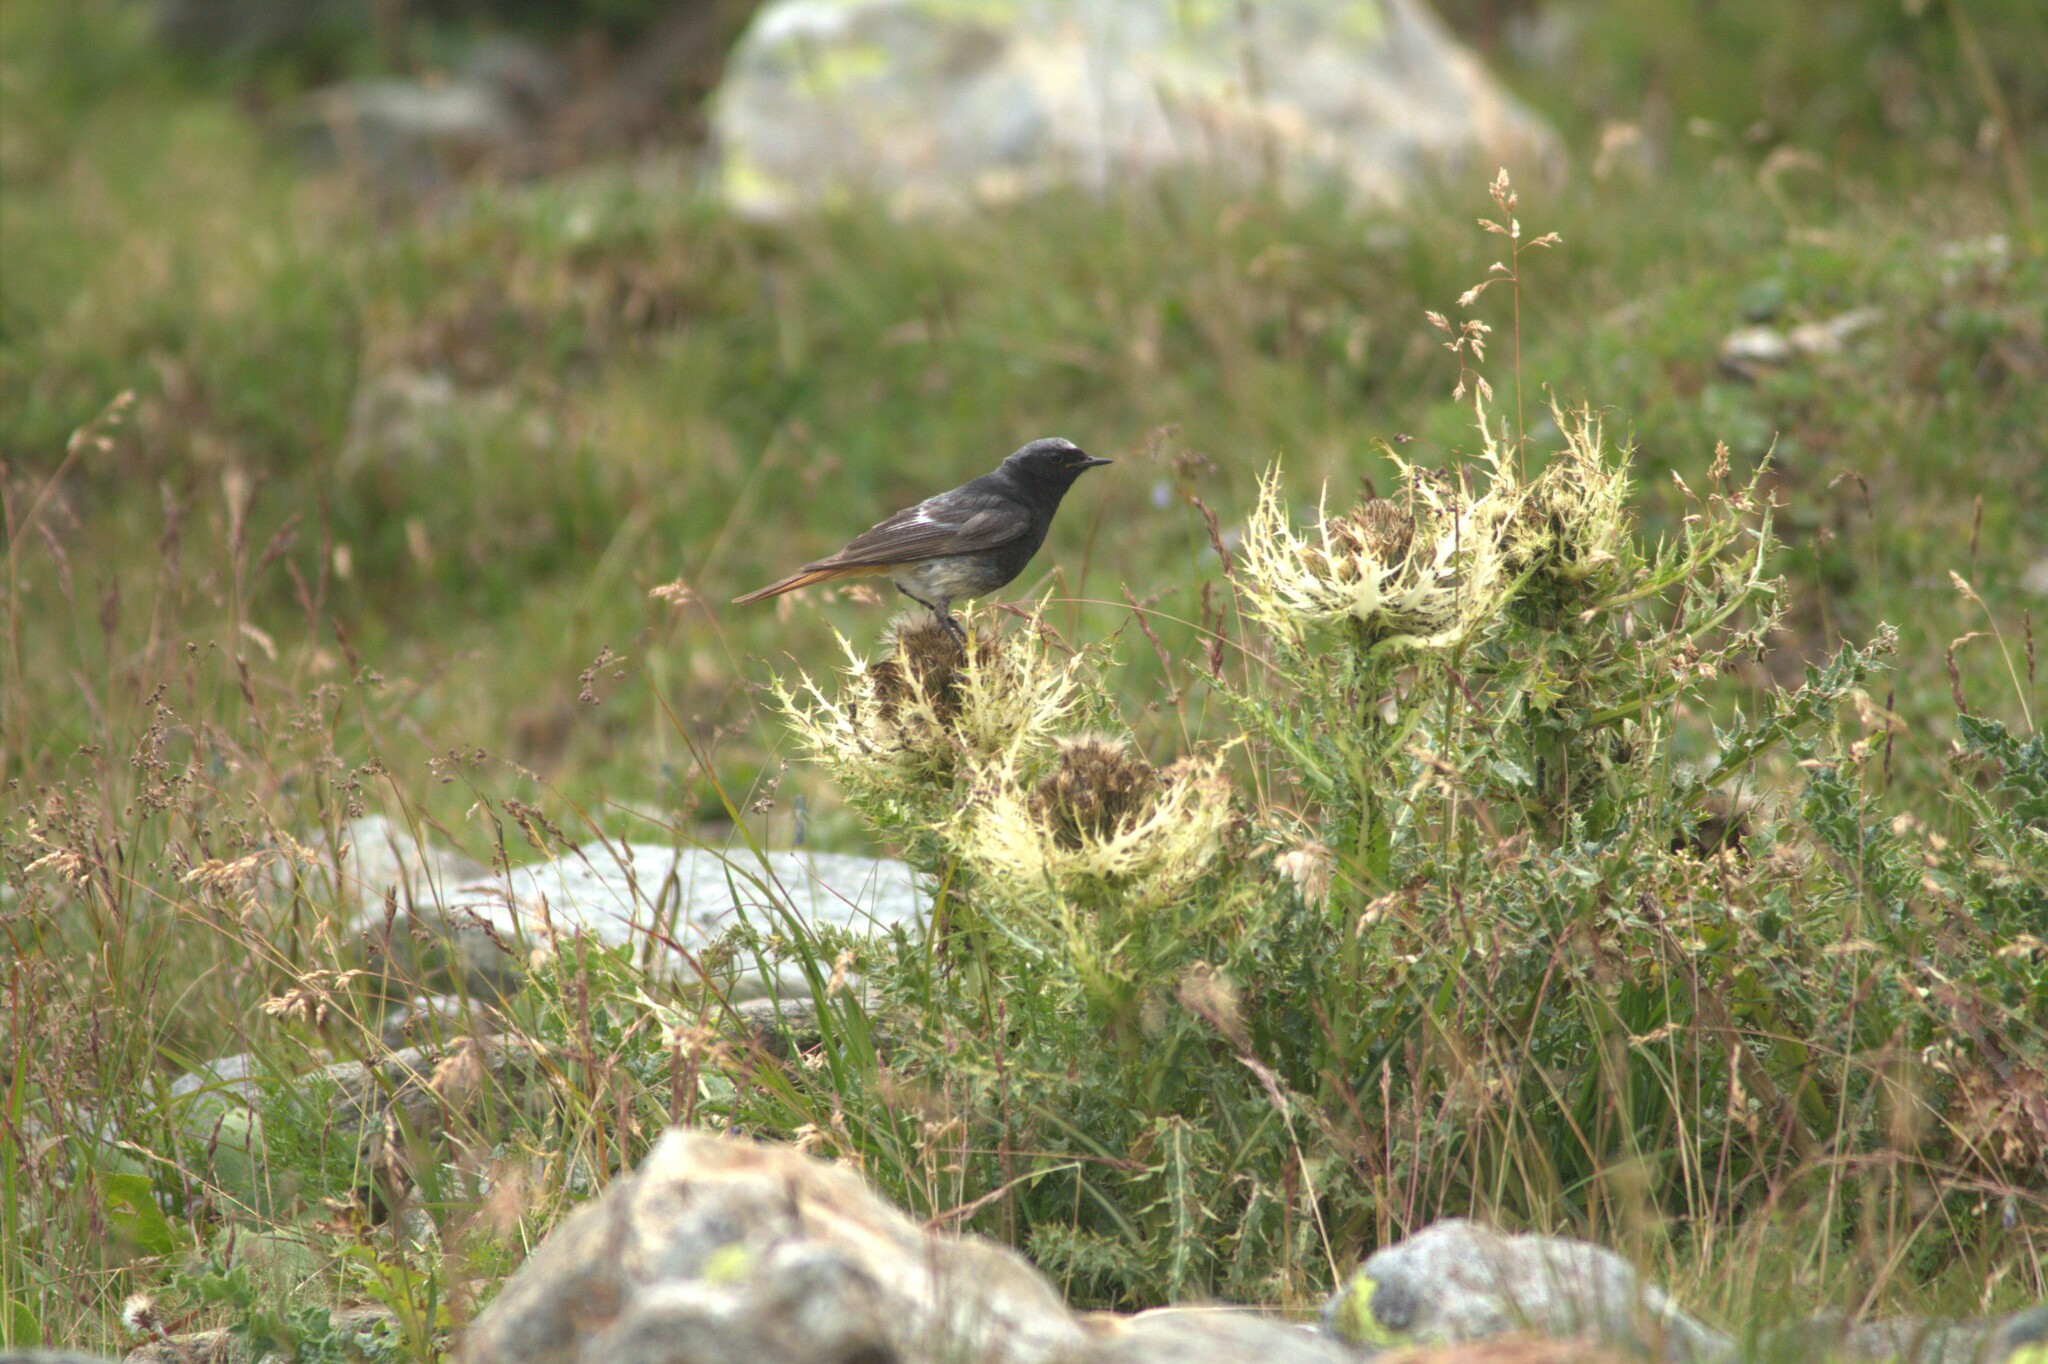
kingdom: Animalia
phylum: Chordata
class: Aves
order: Passeriformes
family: Muscicapidae
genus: Phoenicurus
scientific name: Phoenicurus ochruros
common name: Black redstart
